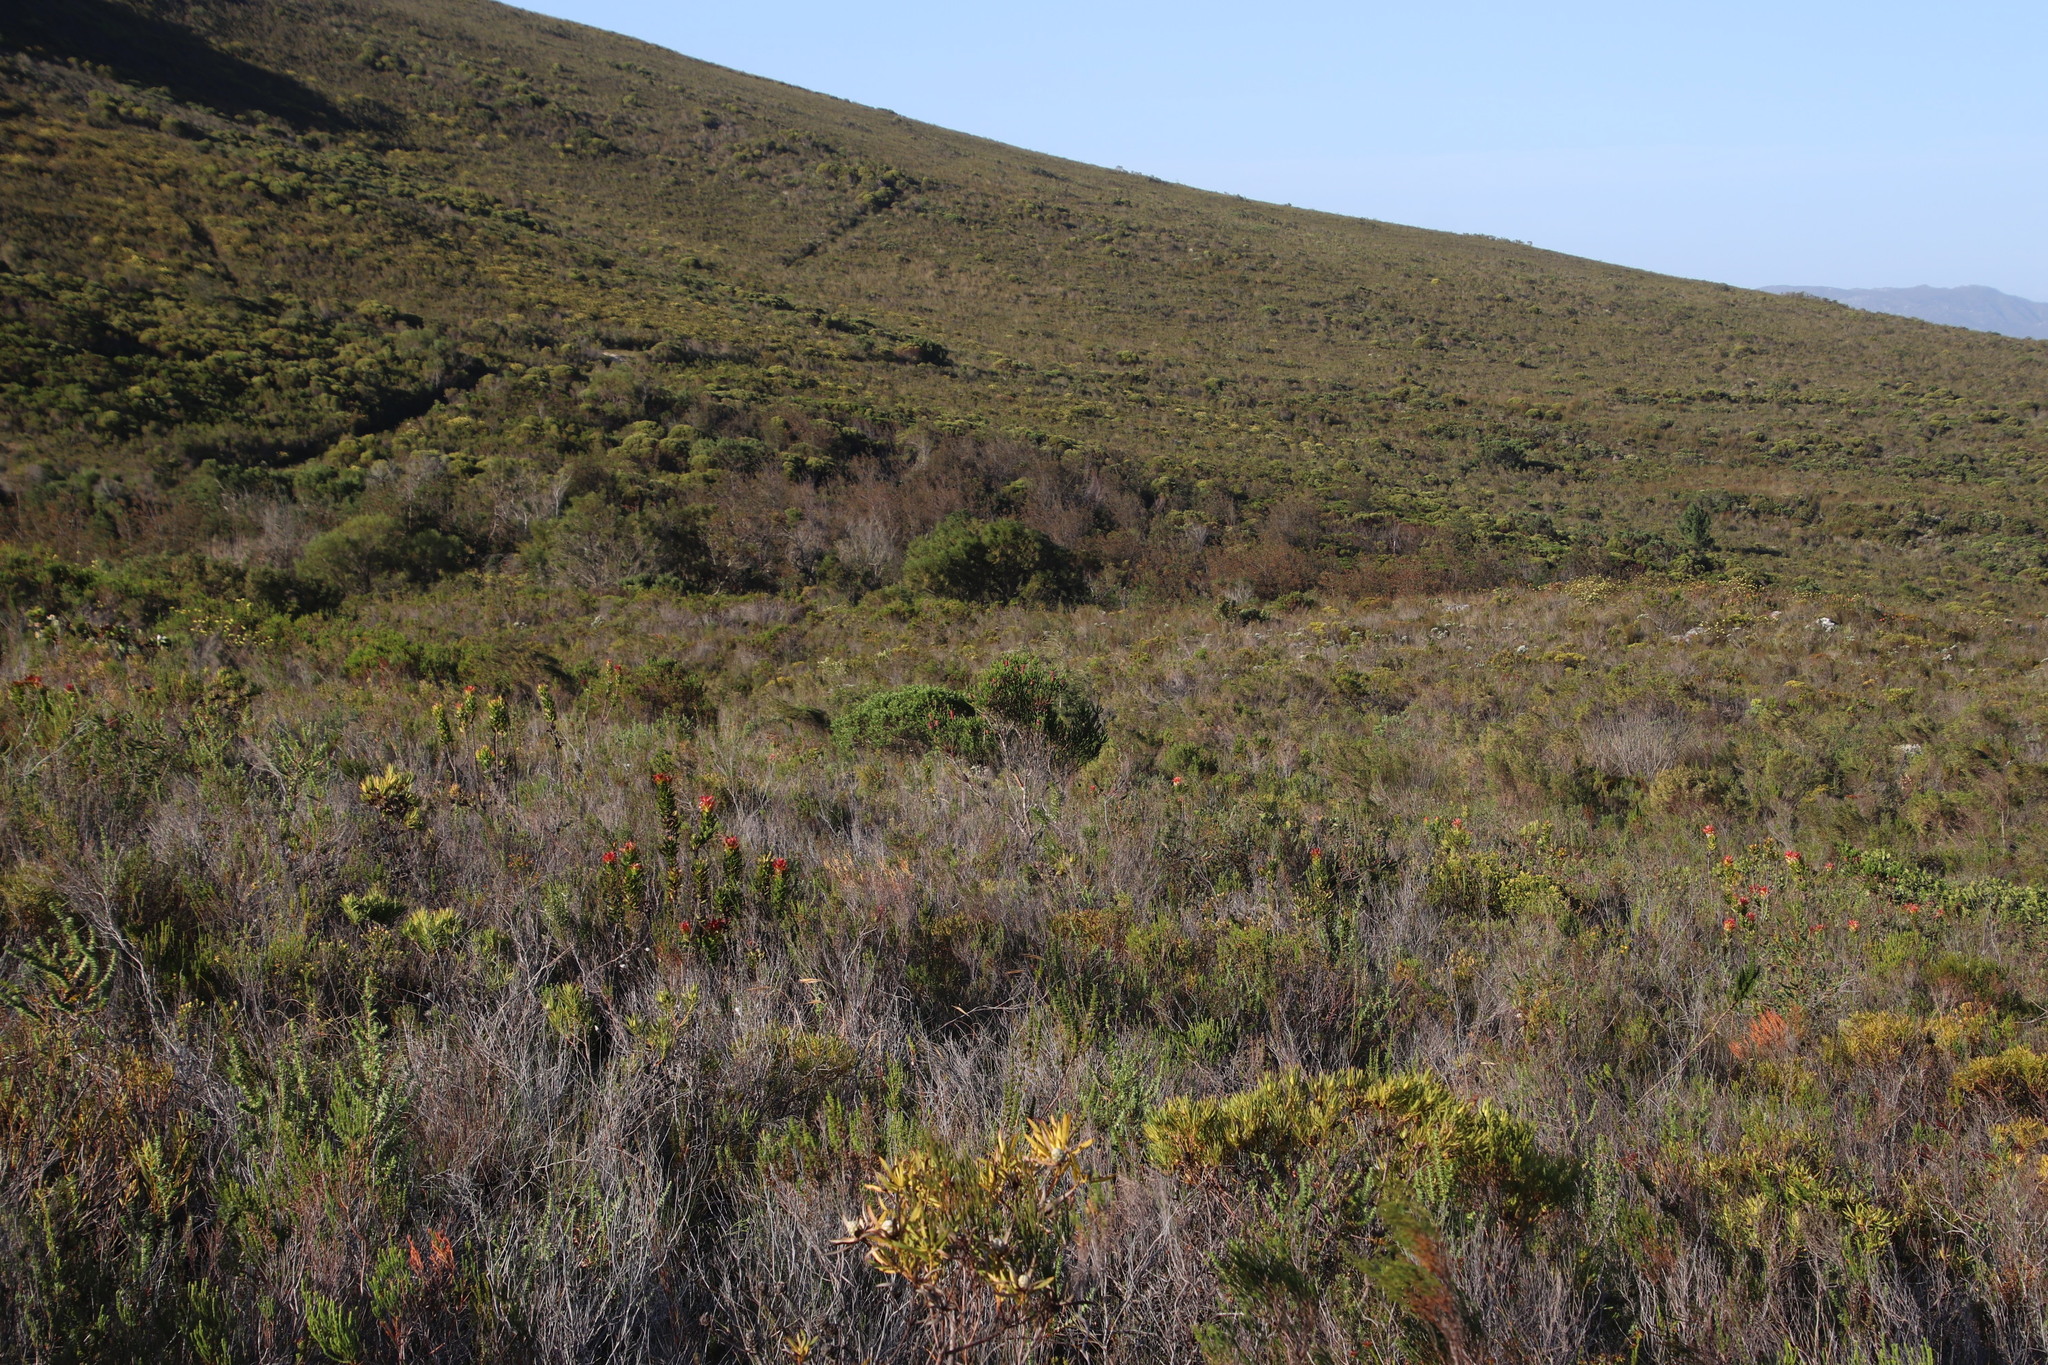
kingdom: Plantae
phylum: Tracheophyta
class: Magnoliopsida
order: Ericales
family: Ericaceae
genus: Erica
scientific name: Erica sessiliflora
